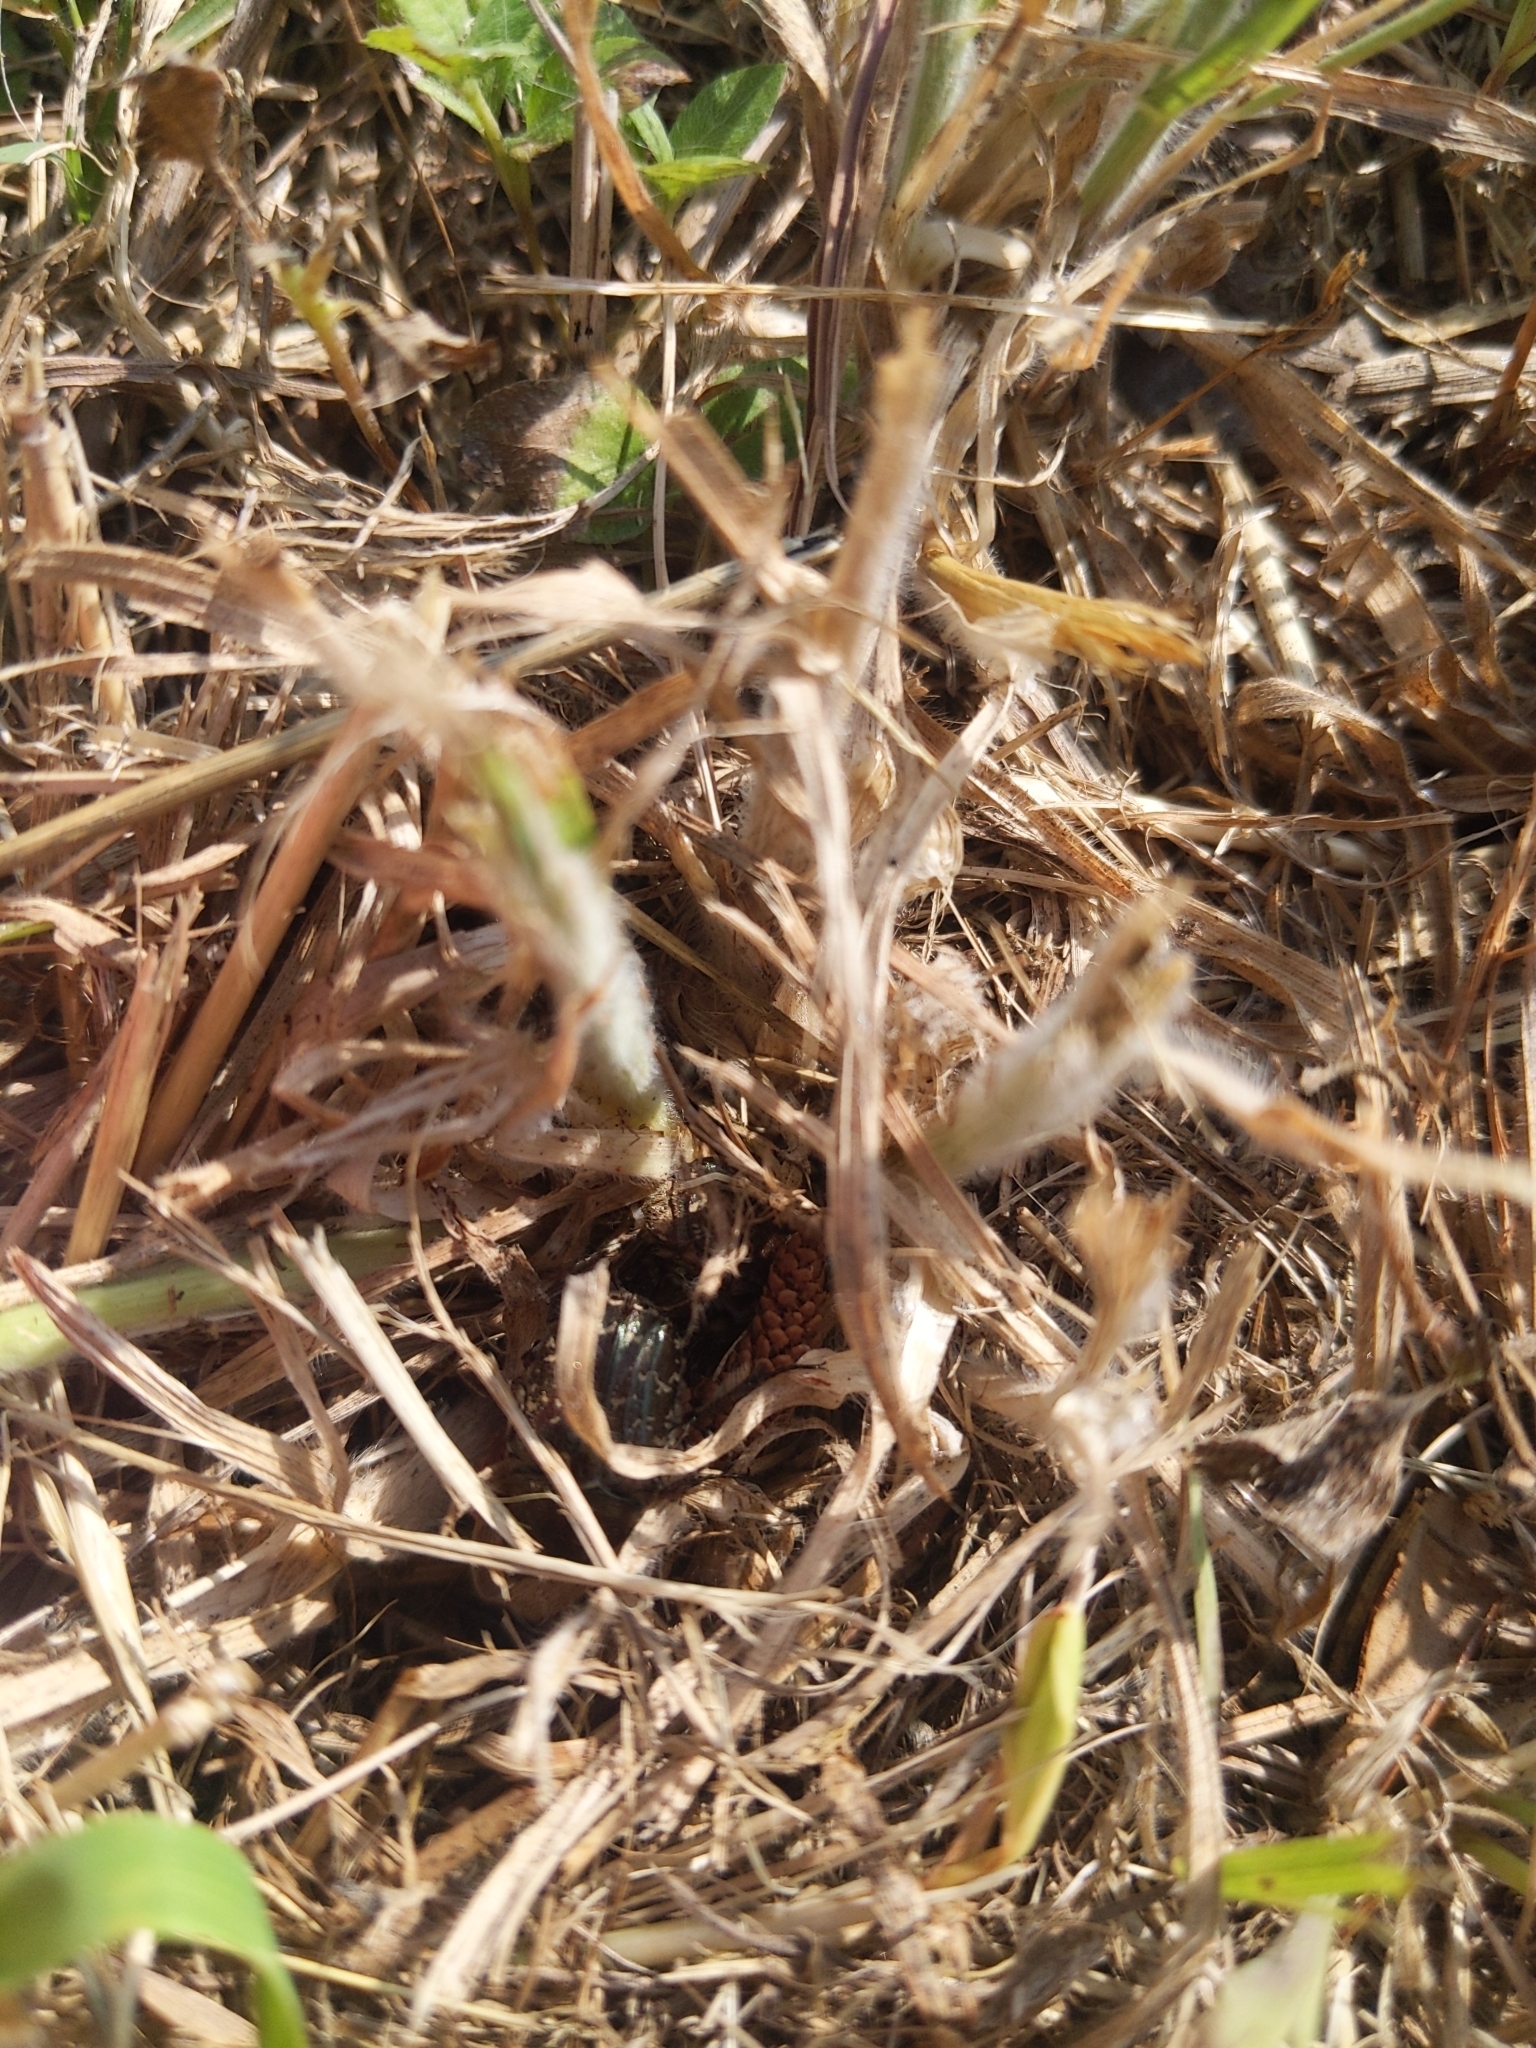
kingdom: Animalia
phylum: Arthropoda
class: Insecta
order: Coleoptera
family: Scarabaeidae
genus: Euphoria
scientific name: Euphoria sepulcralis
